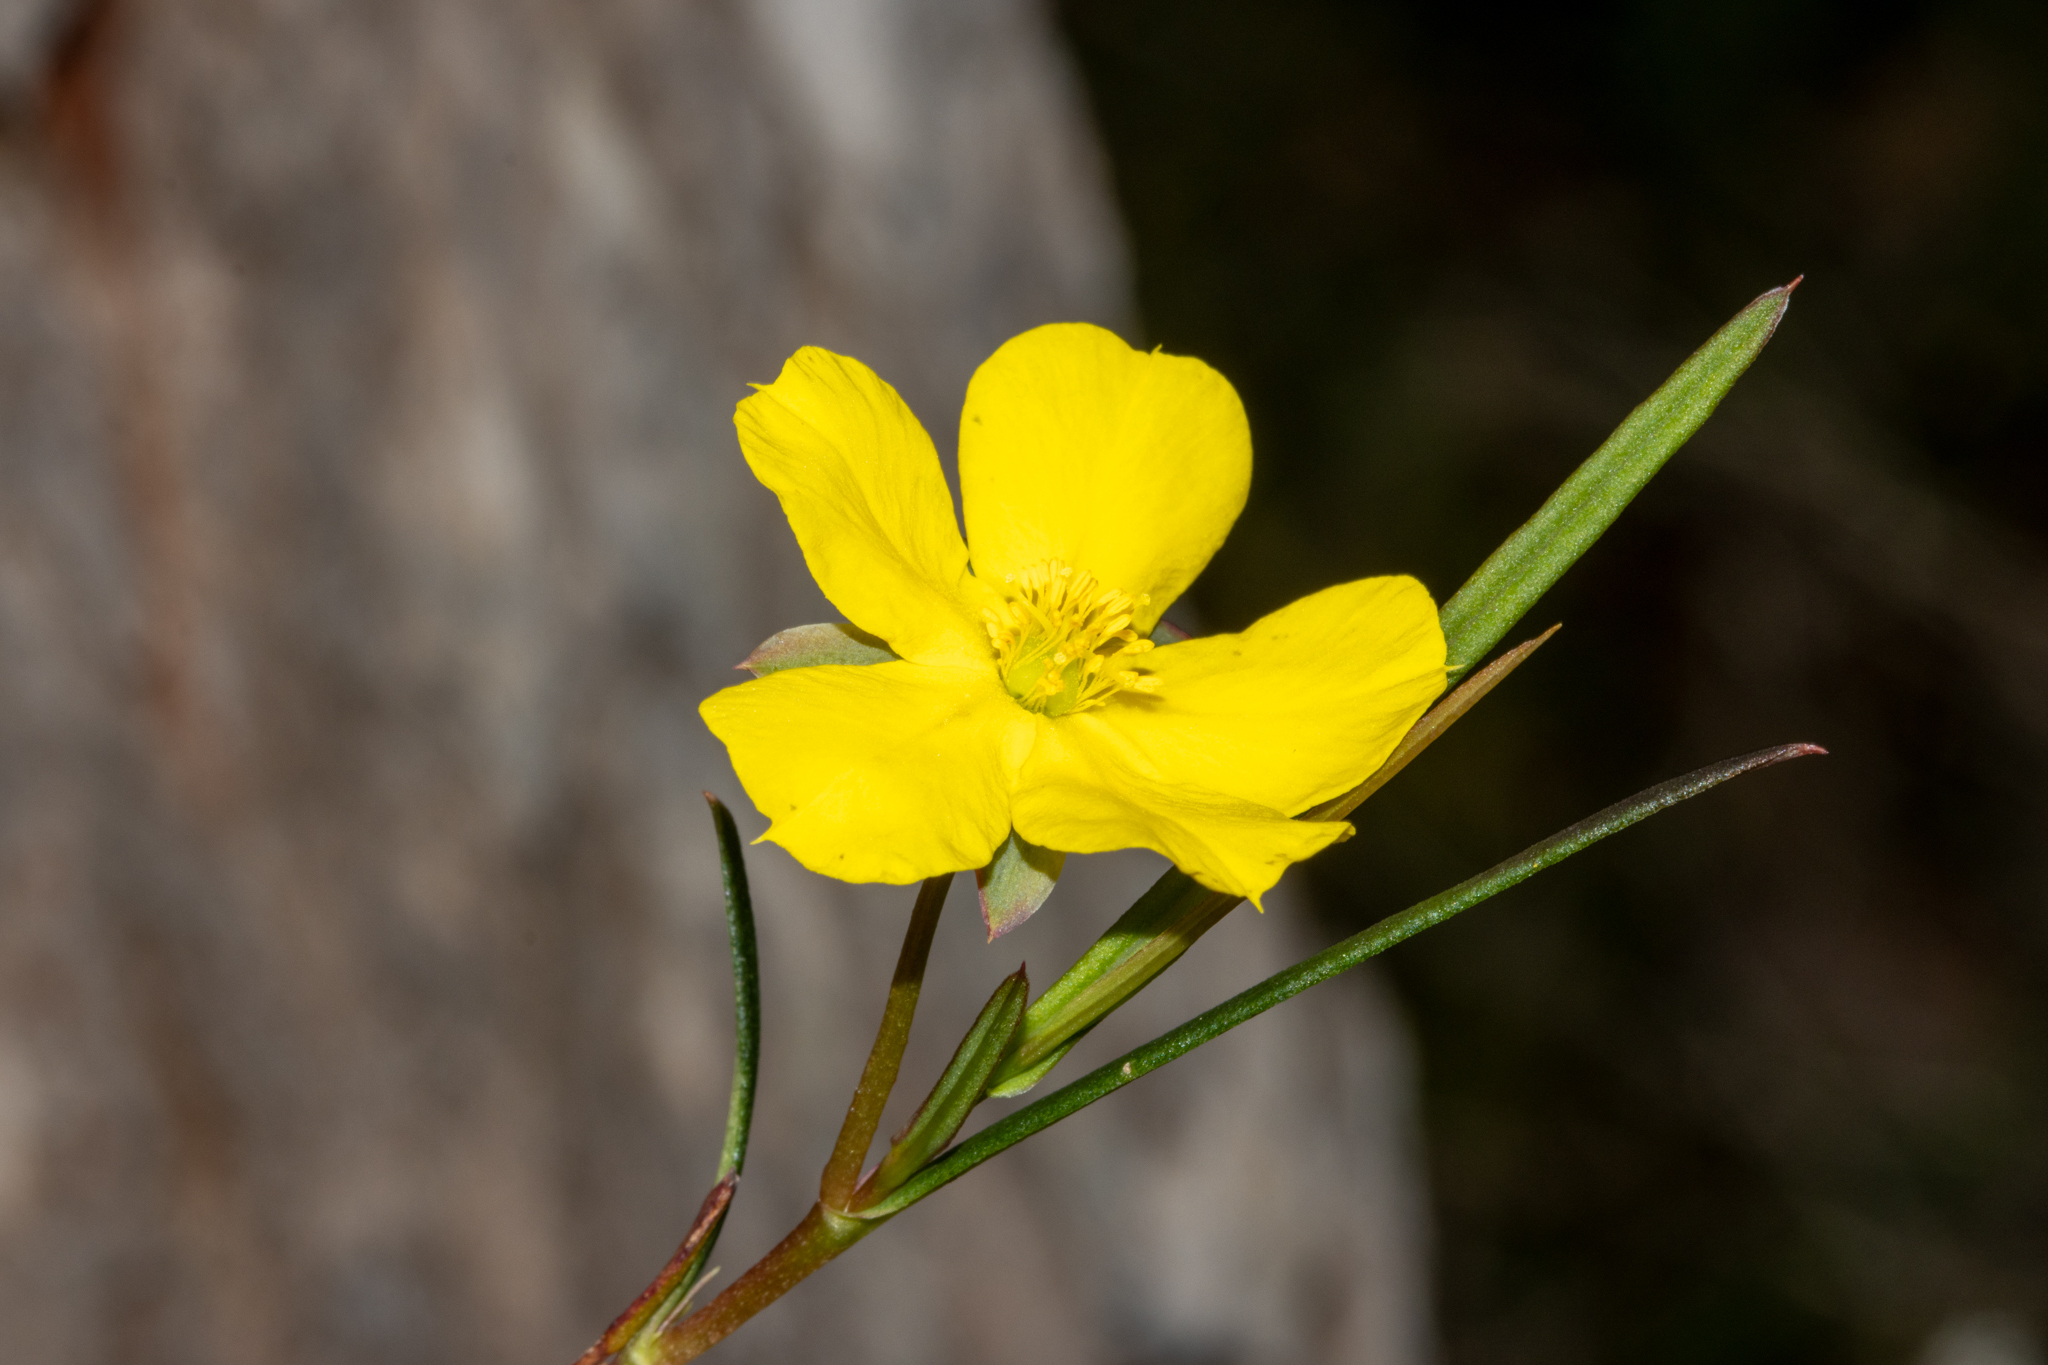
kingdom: Plantae
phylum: Tracheophyta
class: Magnoliopsida
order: Dilleniales
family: Dilleniaceae
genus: Hibbertia
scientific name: Hibbertia cunninghamii
